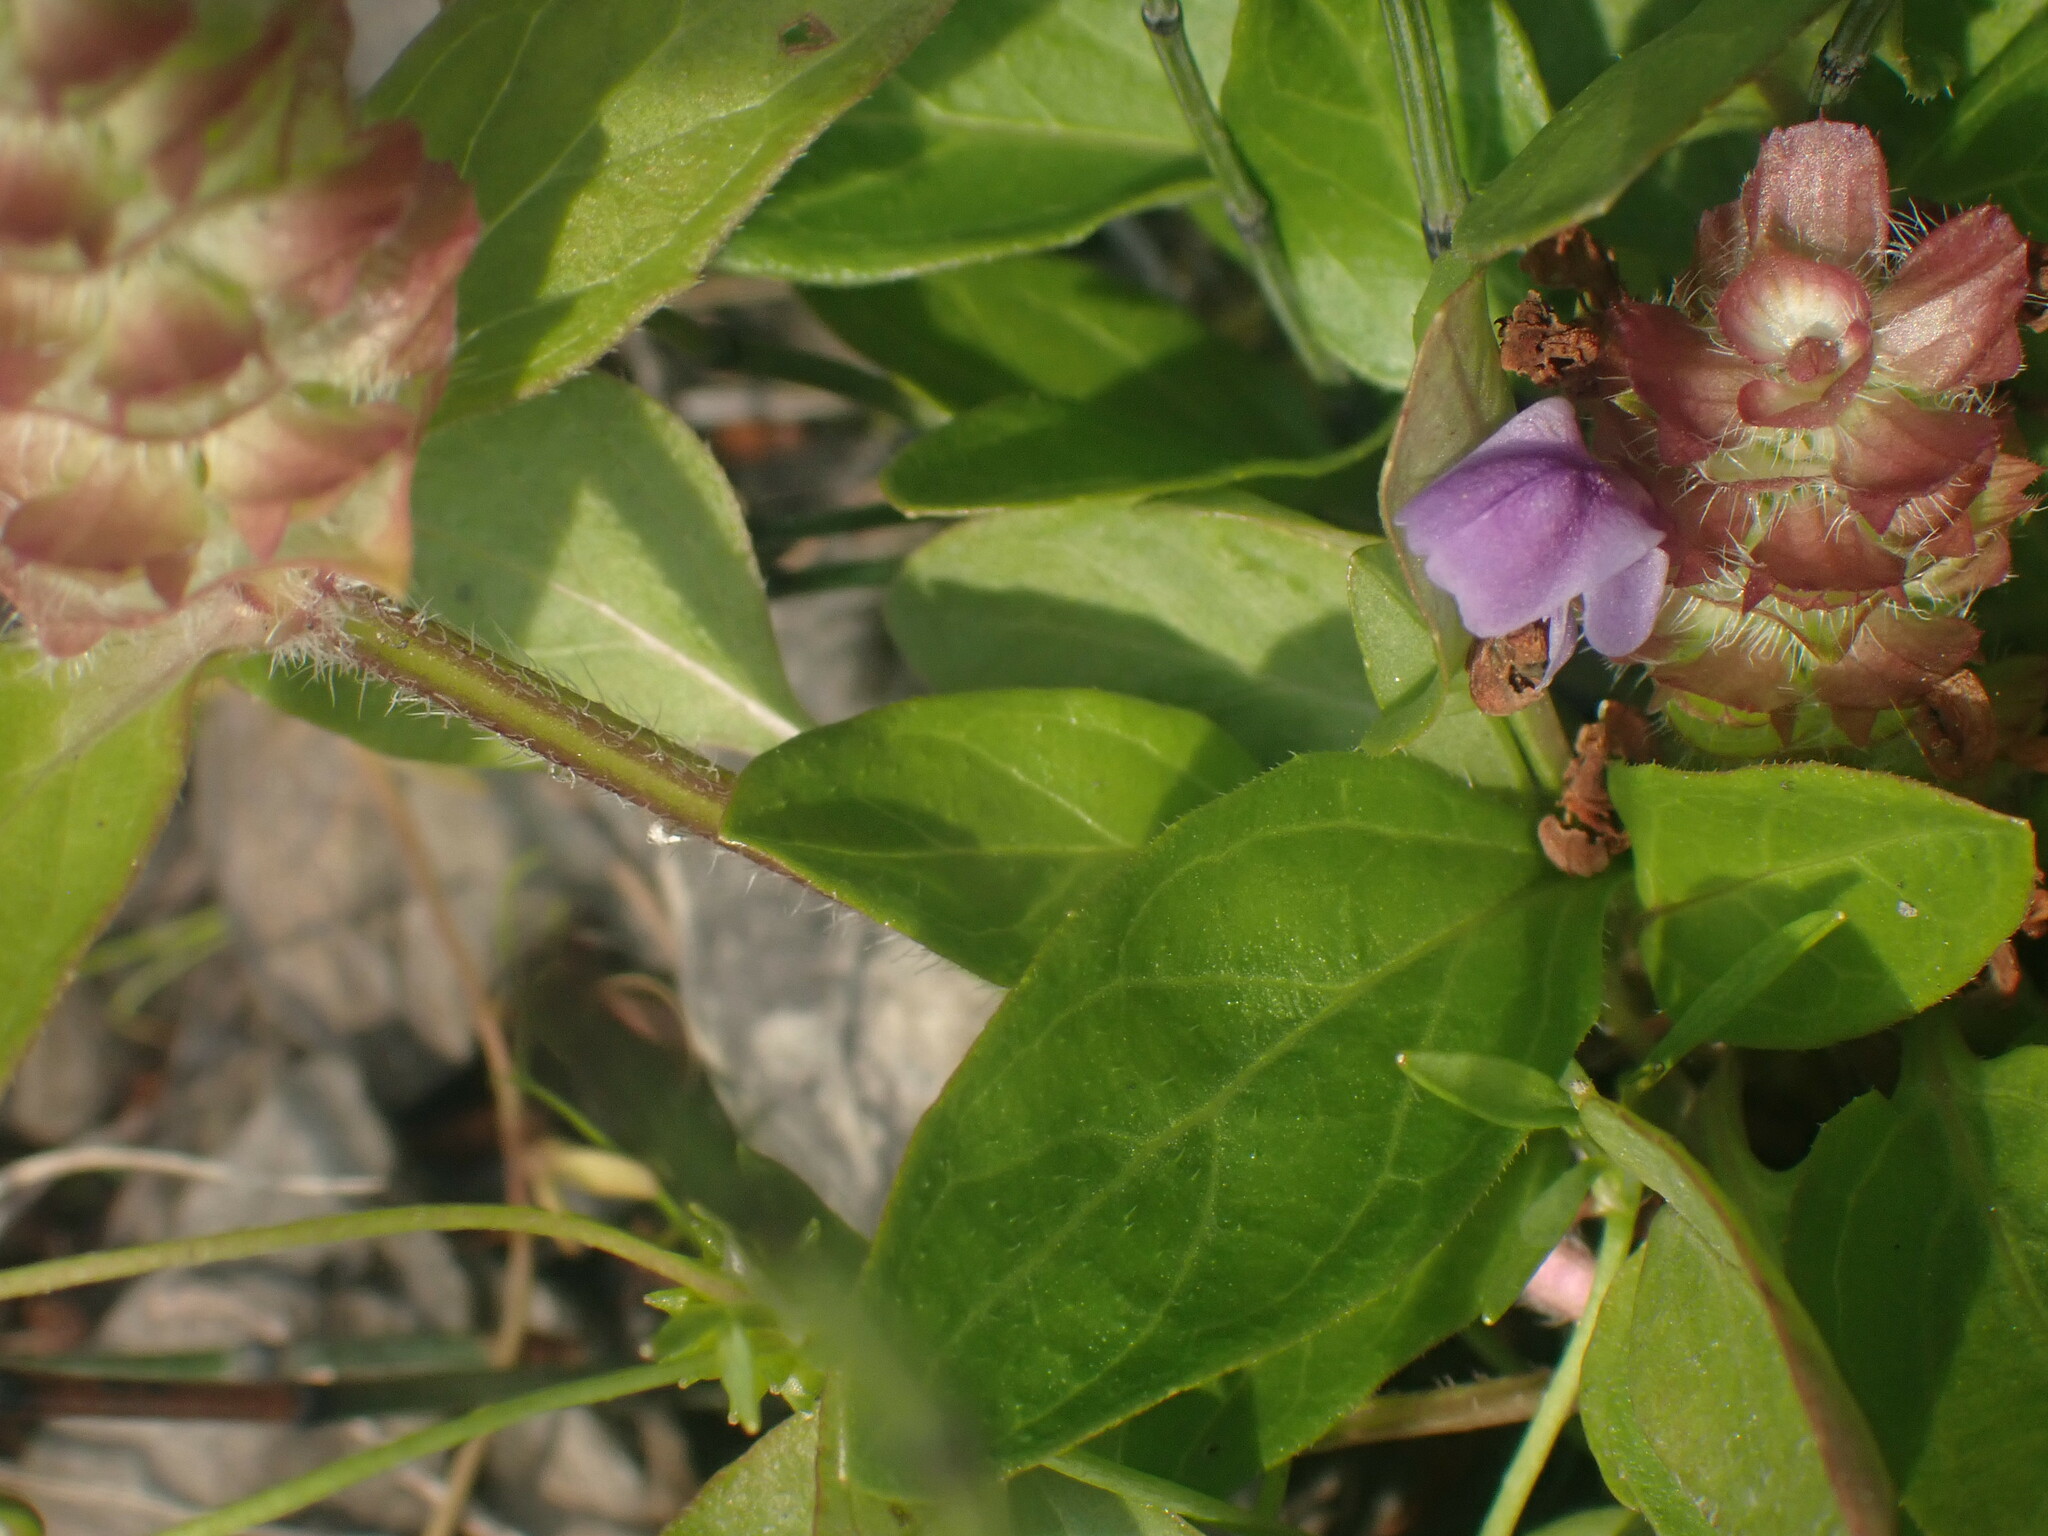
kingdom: Plantae
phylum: Tracheophyta
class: Magnoliopsida
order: Lamiales
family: Lamiaceae
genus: Prunella
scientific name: Prunella vulgaris
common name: Heal-all
